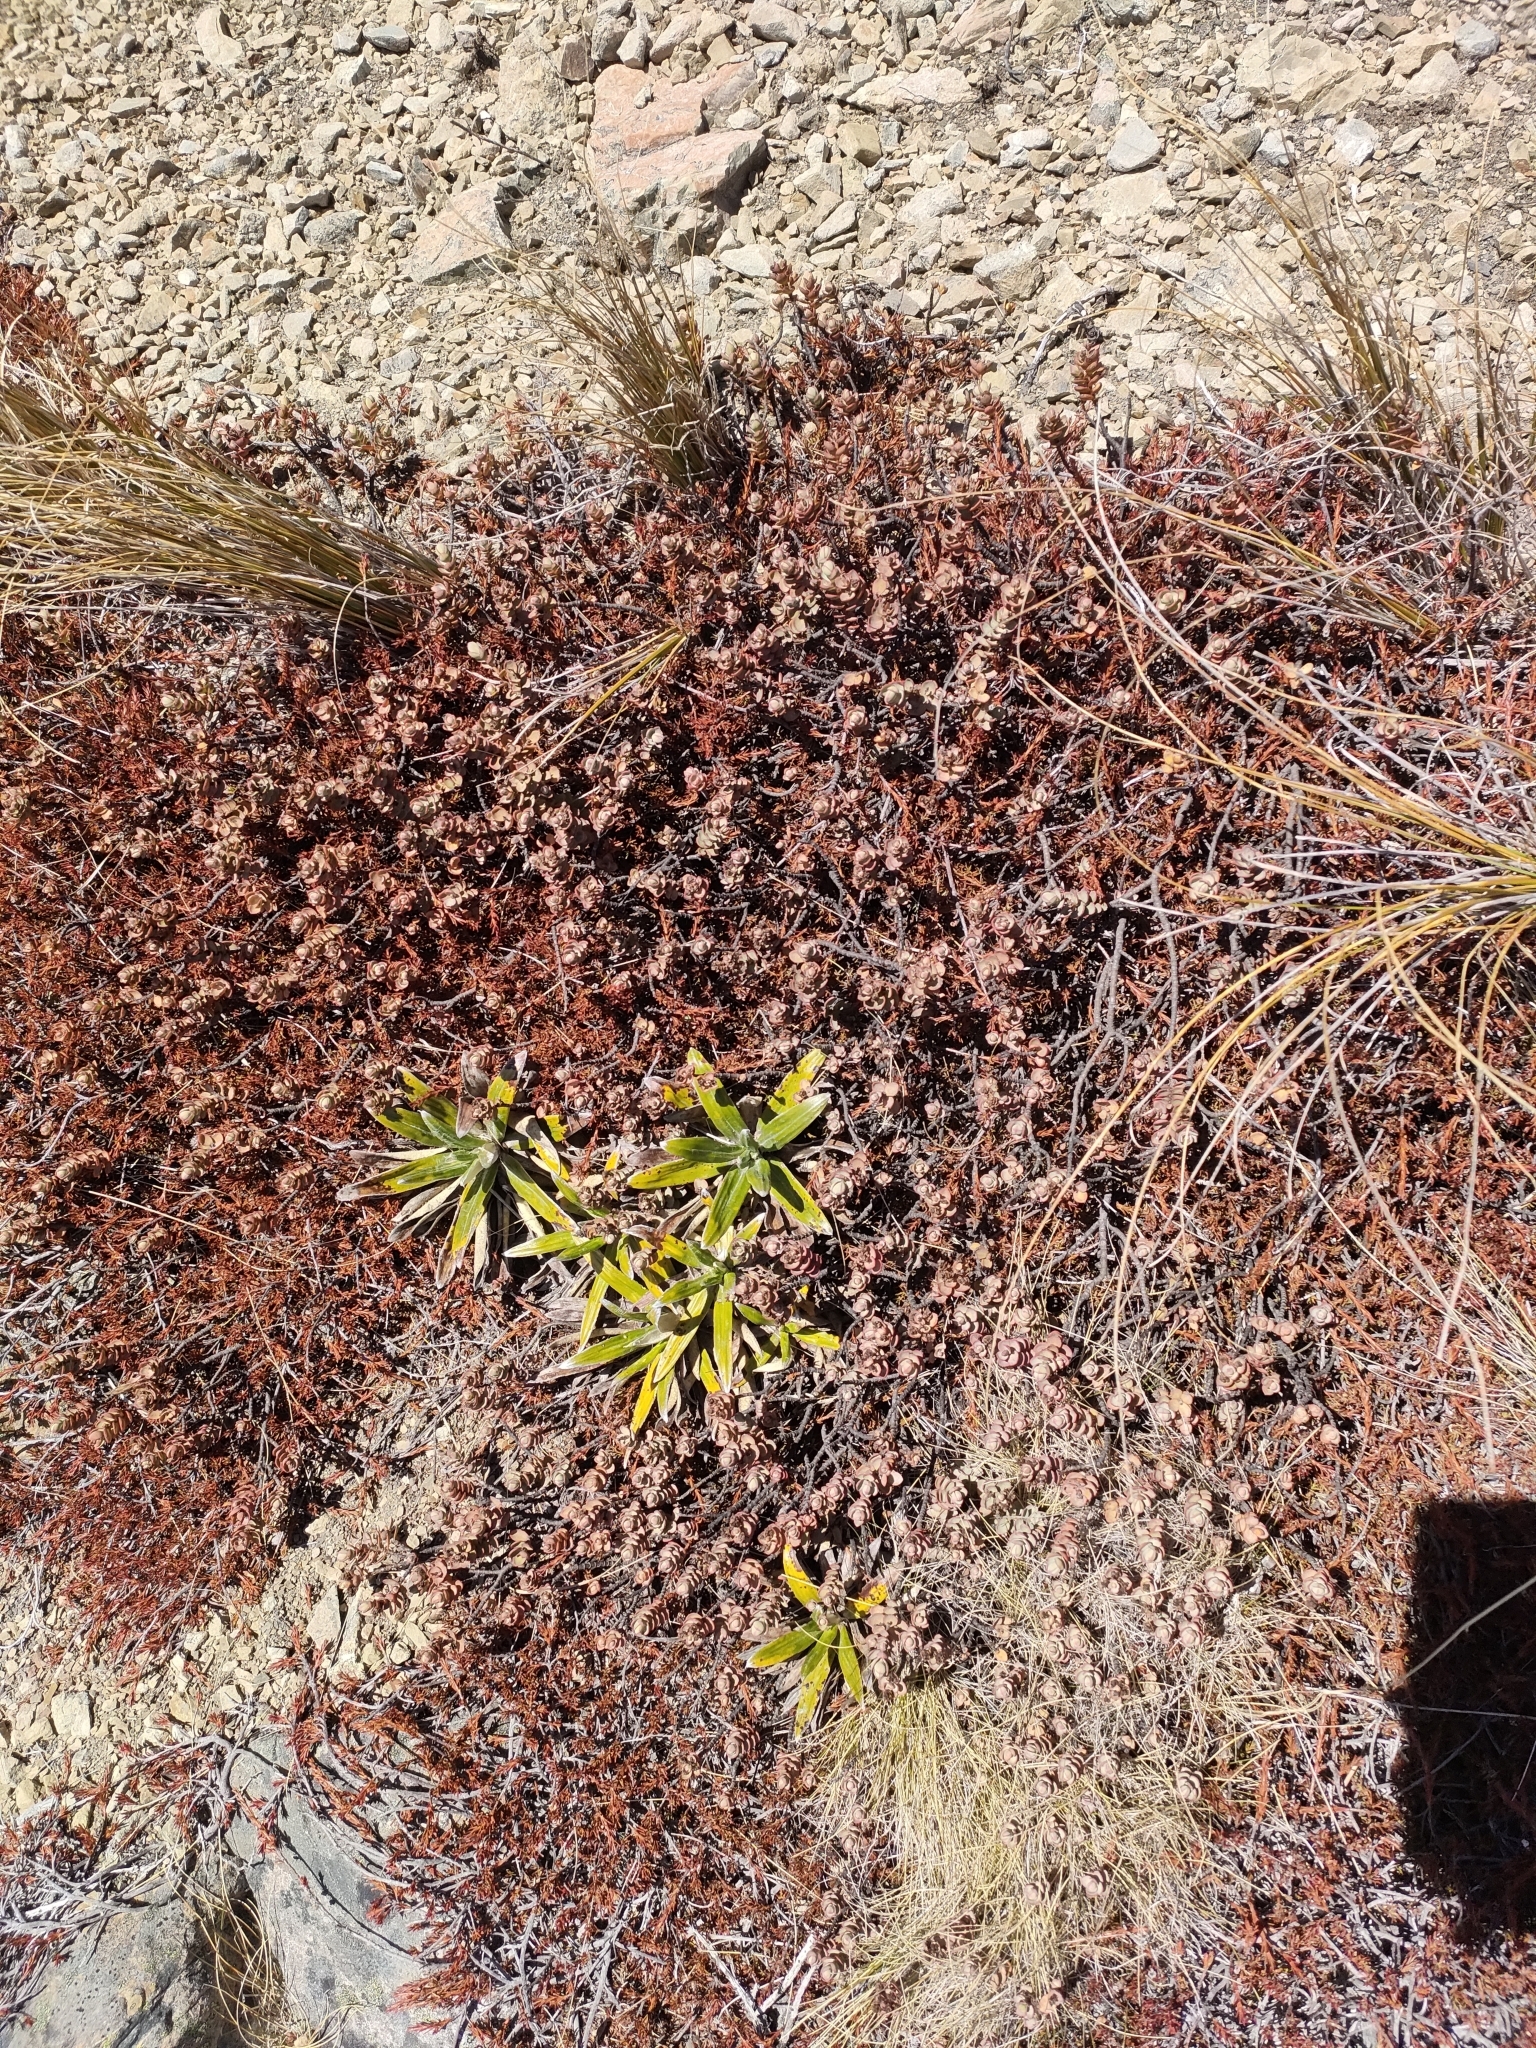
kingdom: Plantae
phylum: Tracheophyta
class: Magnoliopsida
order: Lamiales
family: Plantaginaceae
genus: Veronica
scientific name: Veronica pinguifolia
